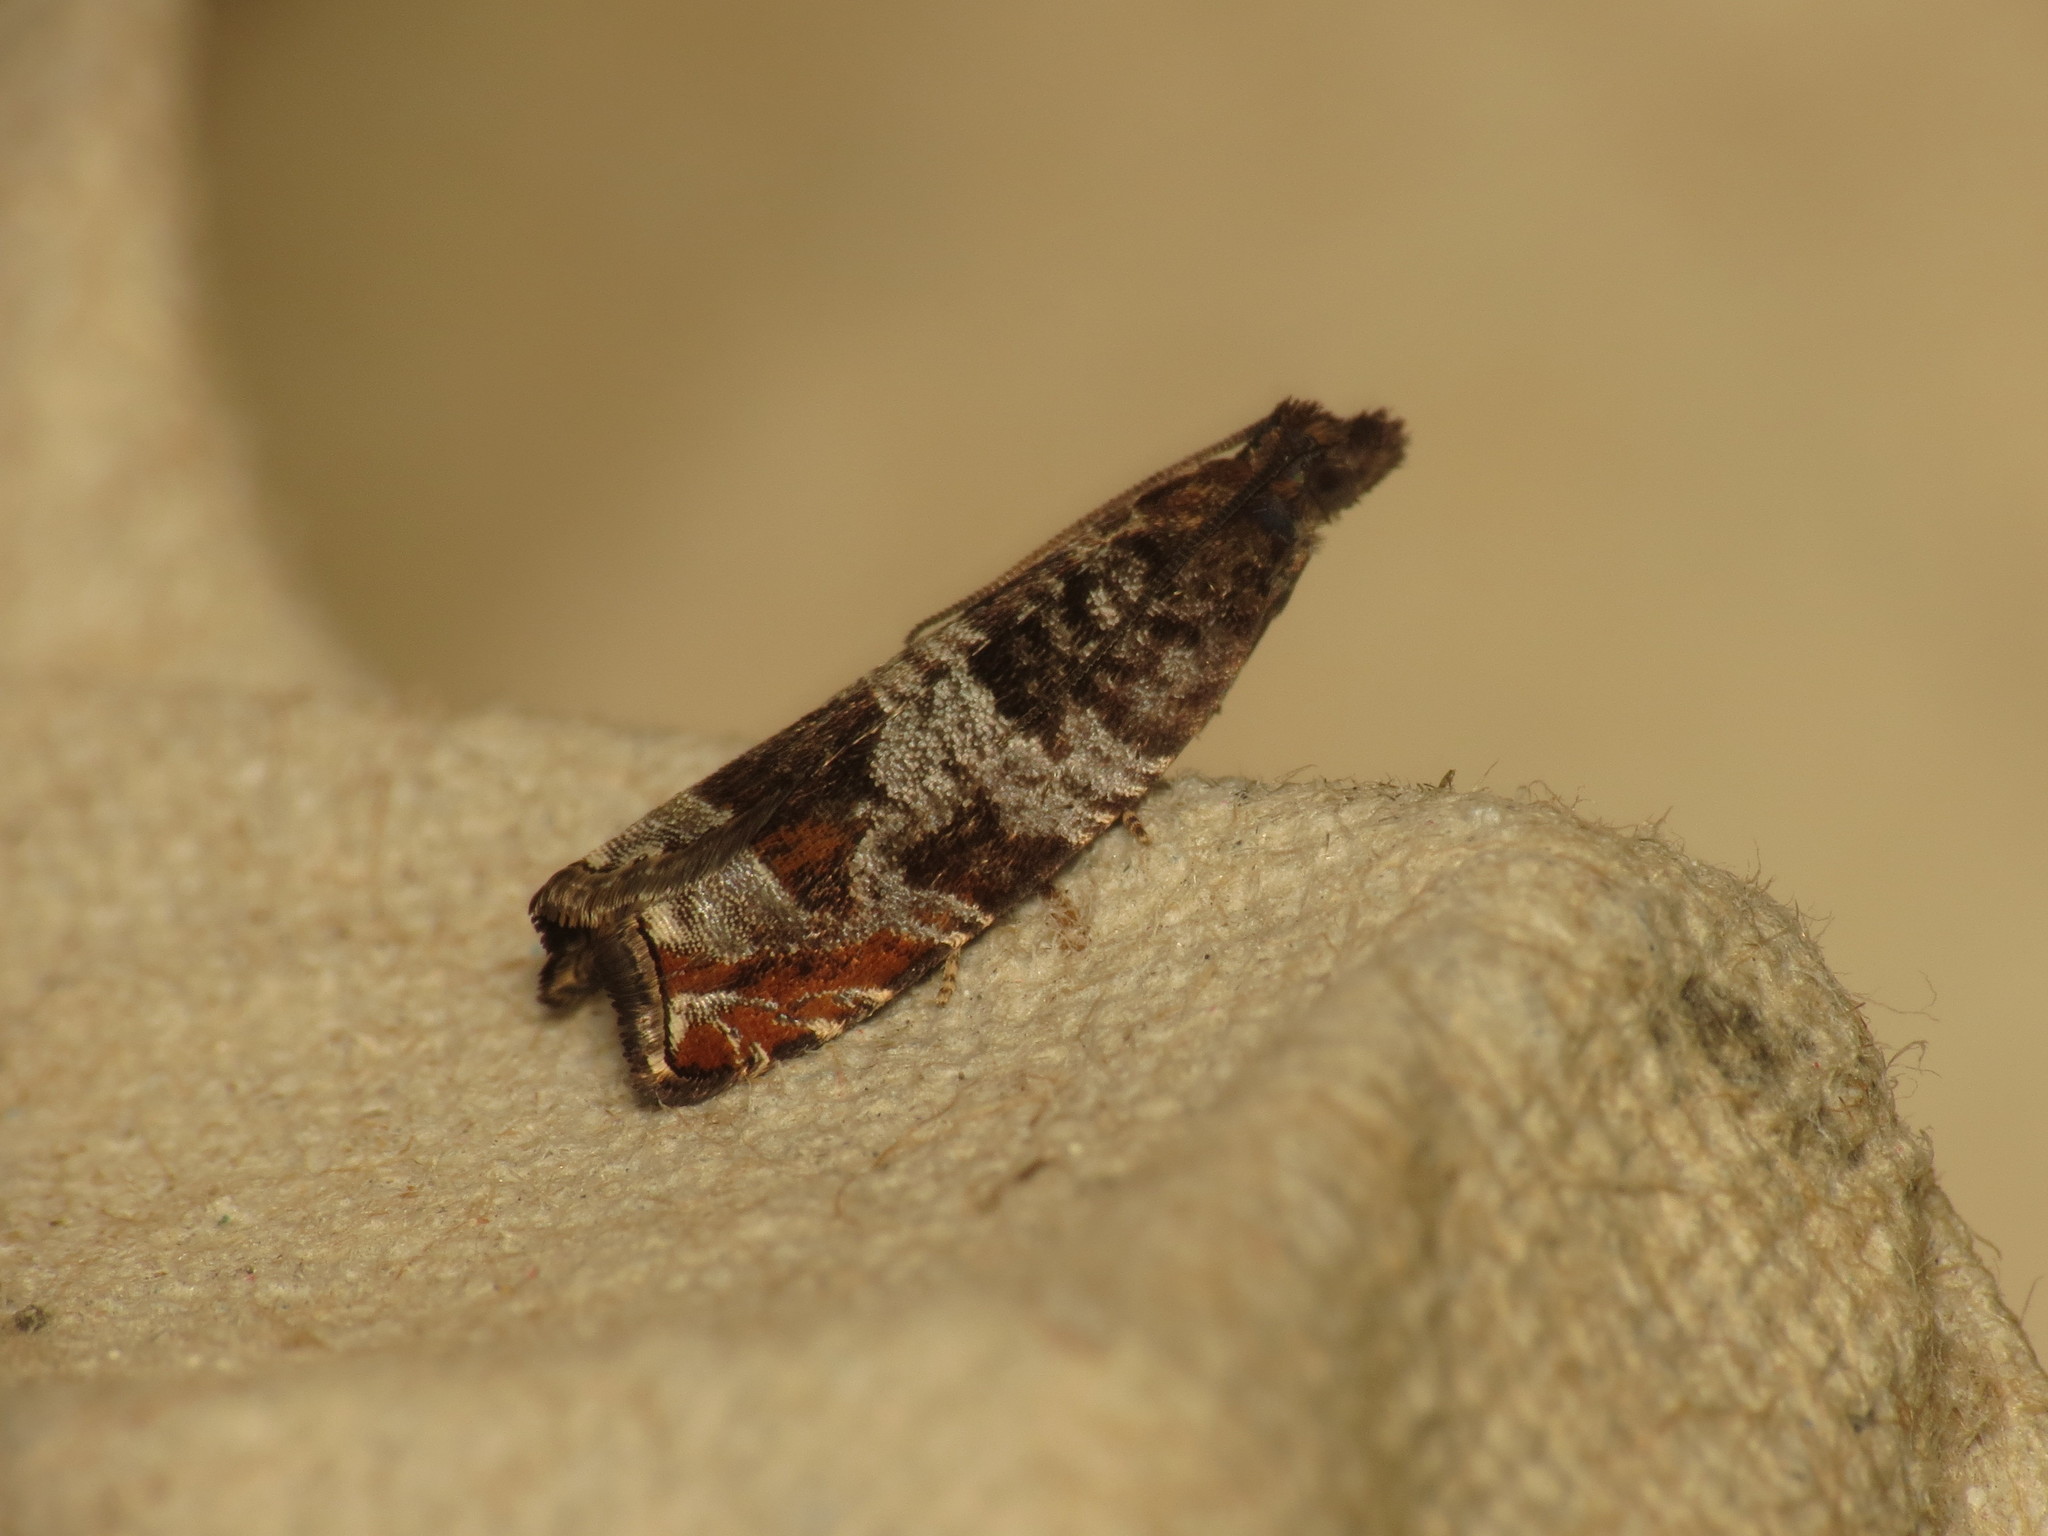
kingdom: Animalia
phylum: Arthropoda
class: Insecta
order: Lepidoptera
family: Tortricidae
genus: Ancylis
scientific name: Ancylis achatana
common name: Triangle-marked roller
